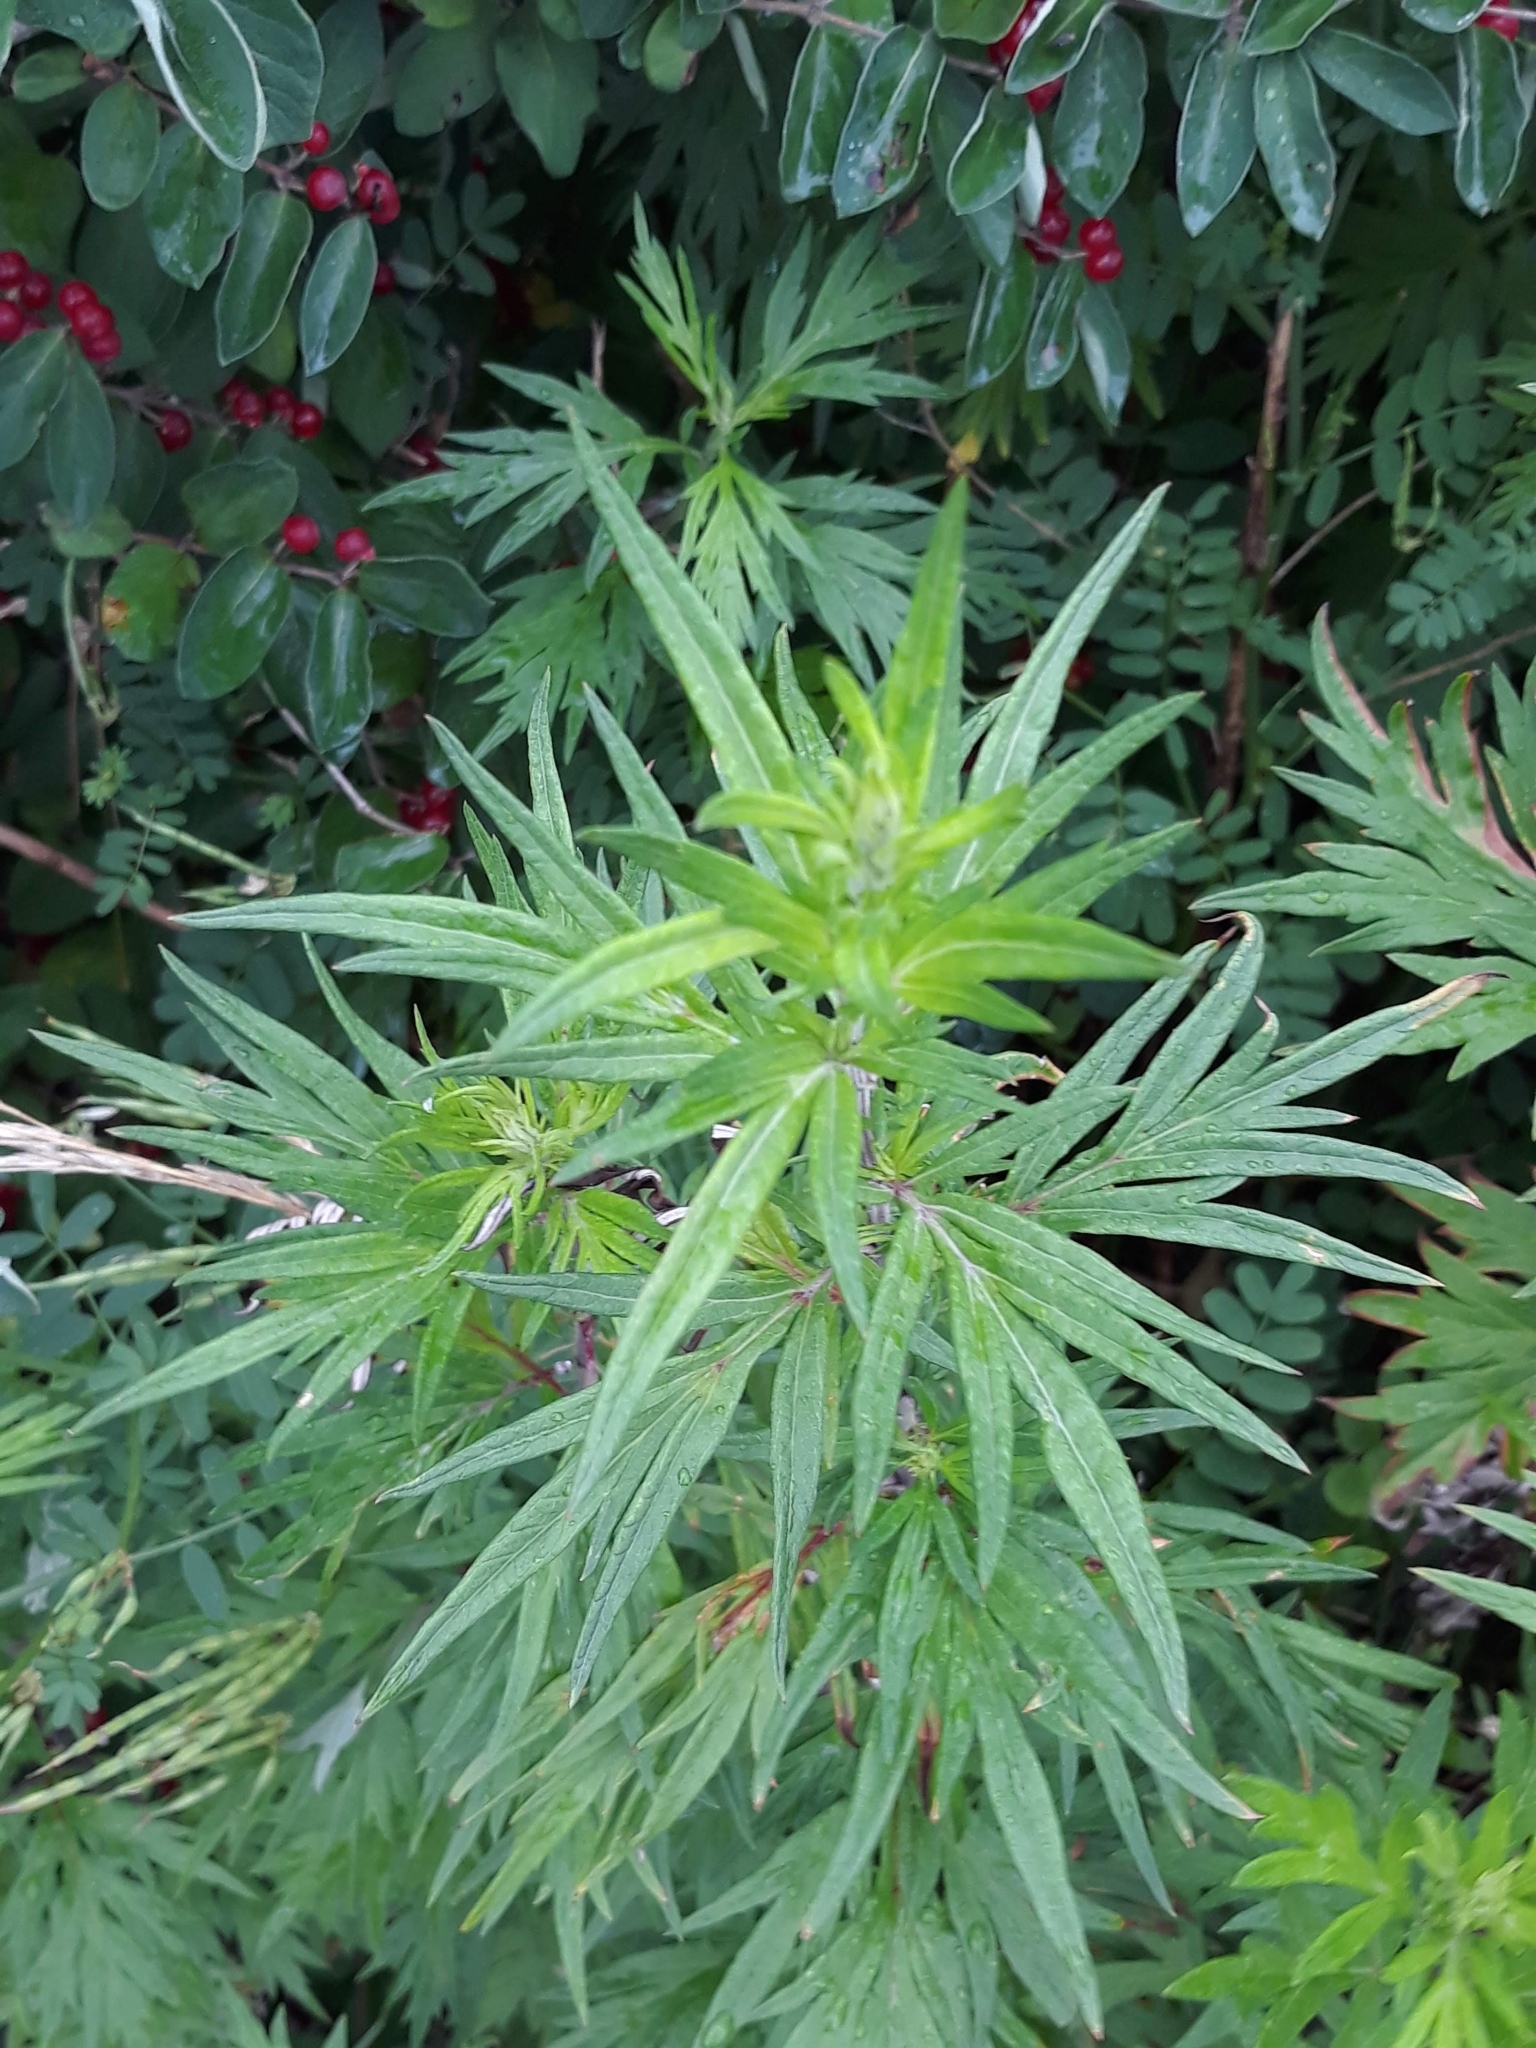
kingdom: Plantae
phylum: Tracheophyta
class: Magnoliopsida
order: Asterales
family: Asteraceae
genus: Artemisia
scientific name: Artemisia vulgaris
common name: Mugwort
